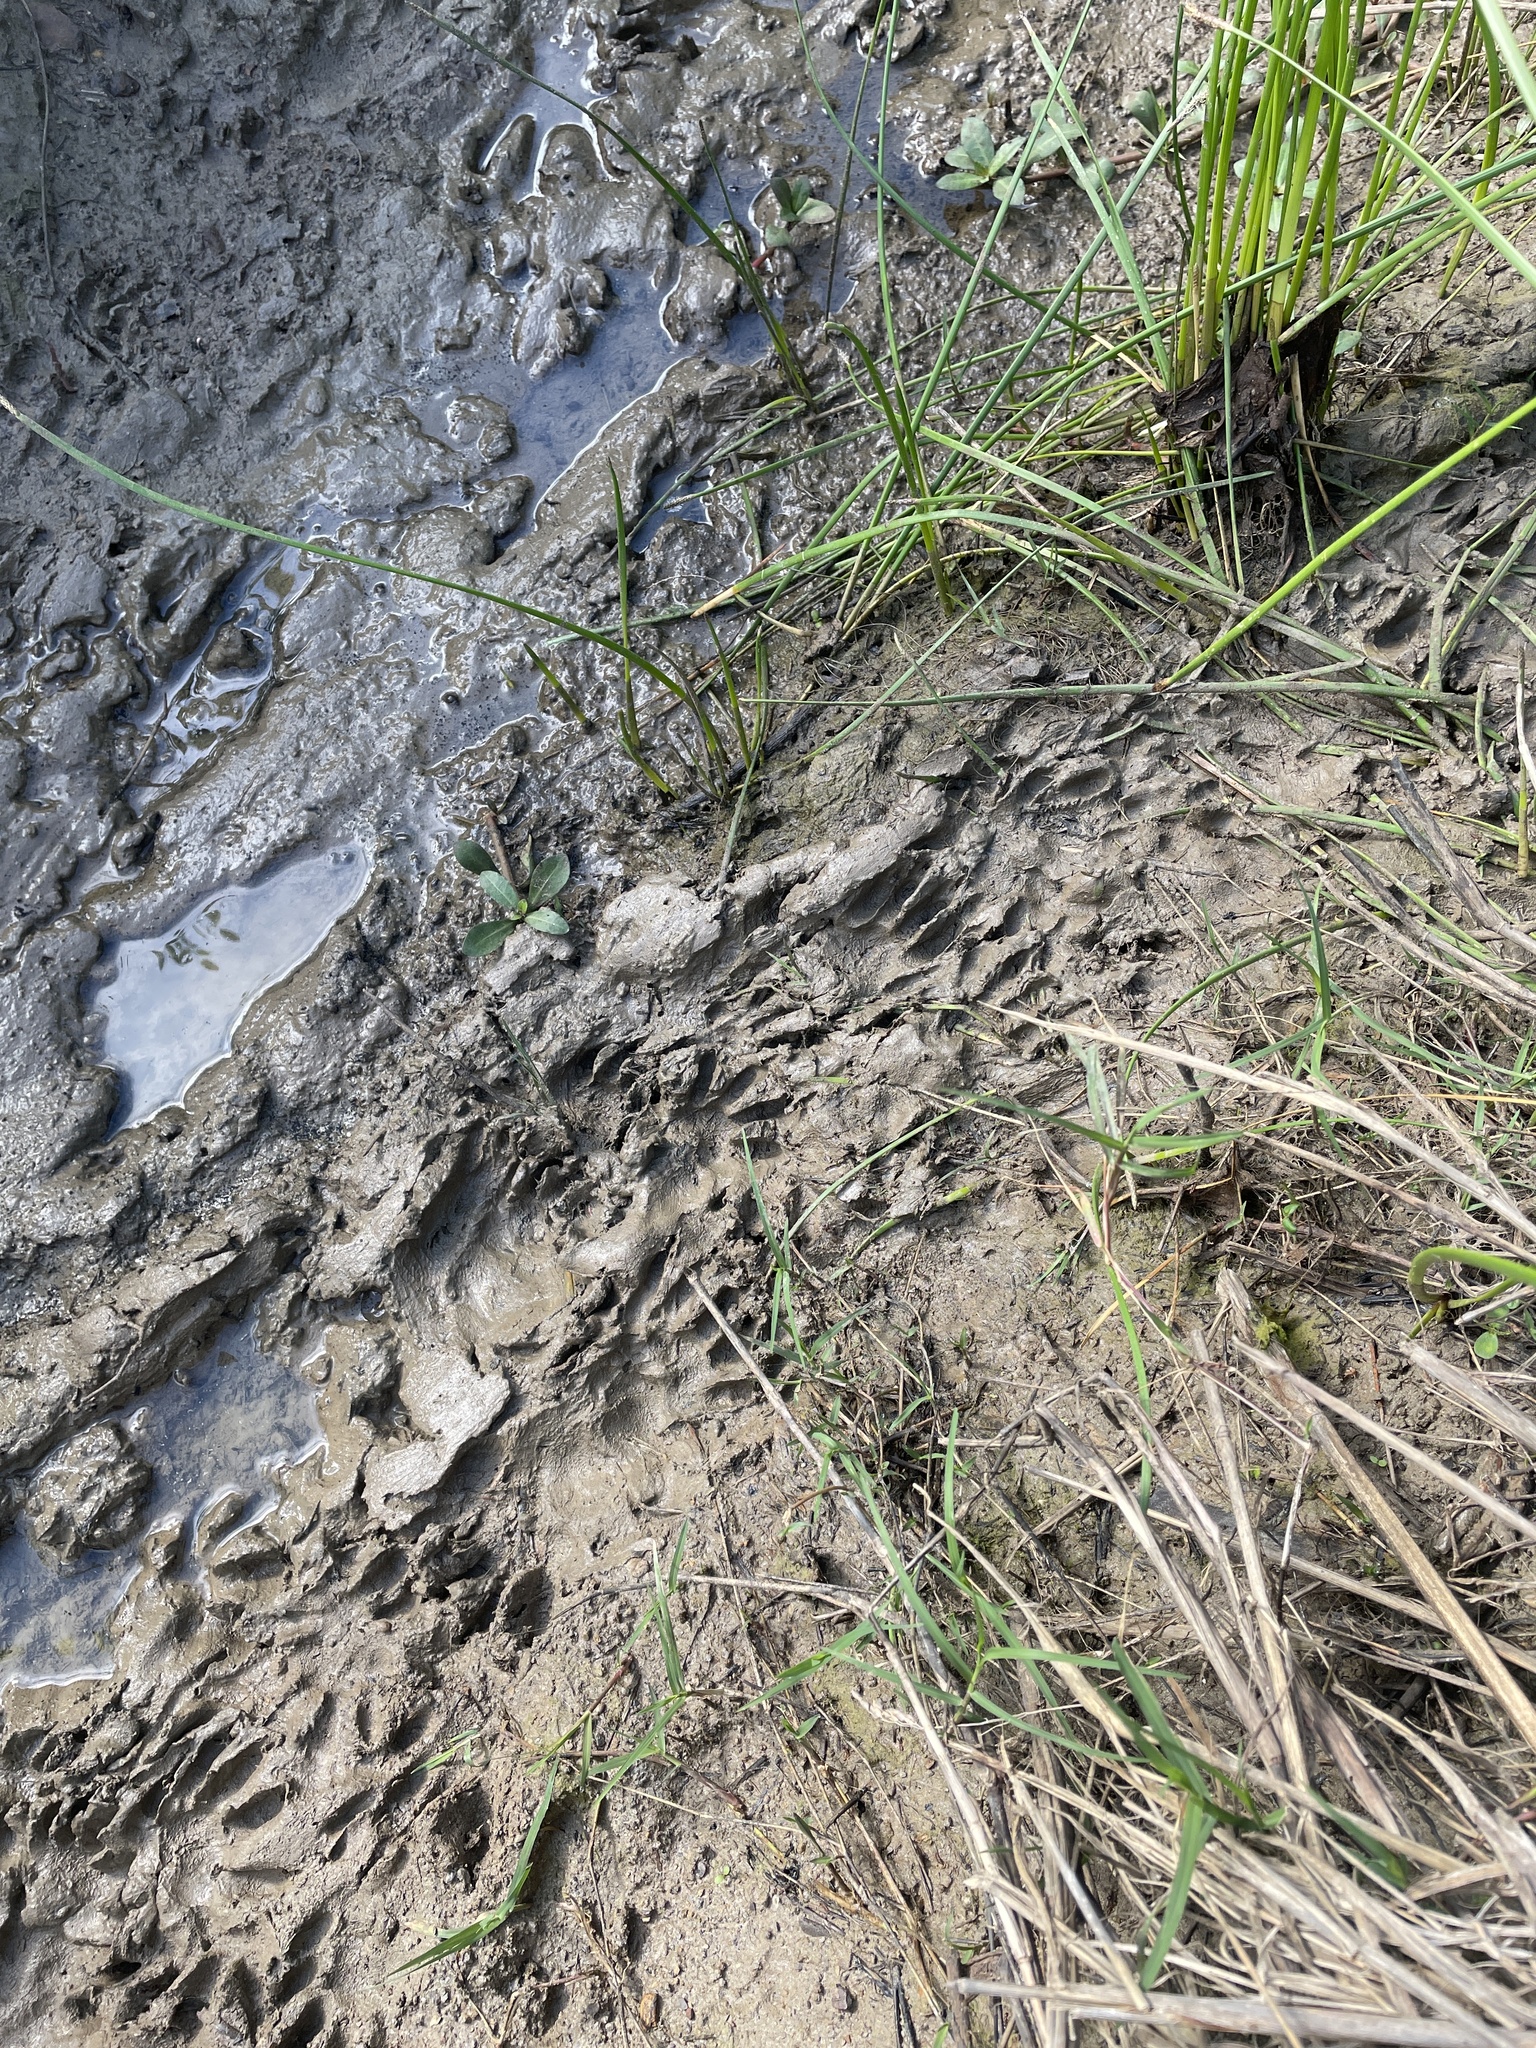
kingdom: Animalia
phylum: Chordata
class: Mammalia
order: Carnivora
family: Procyonidae
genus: Procyon
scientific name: Procyon lotor
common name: Raccoon
